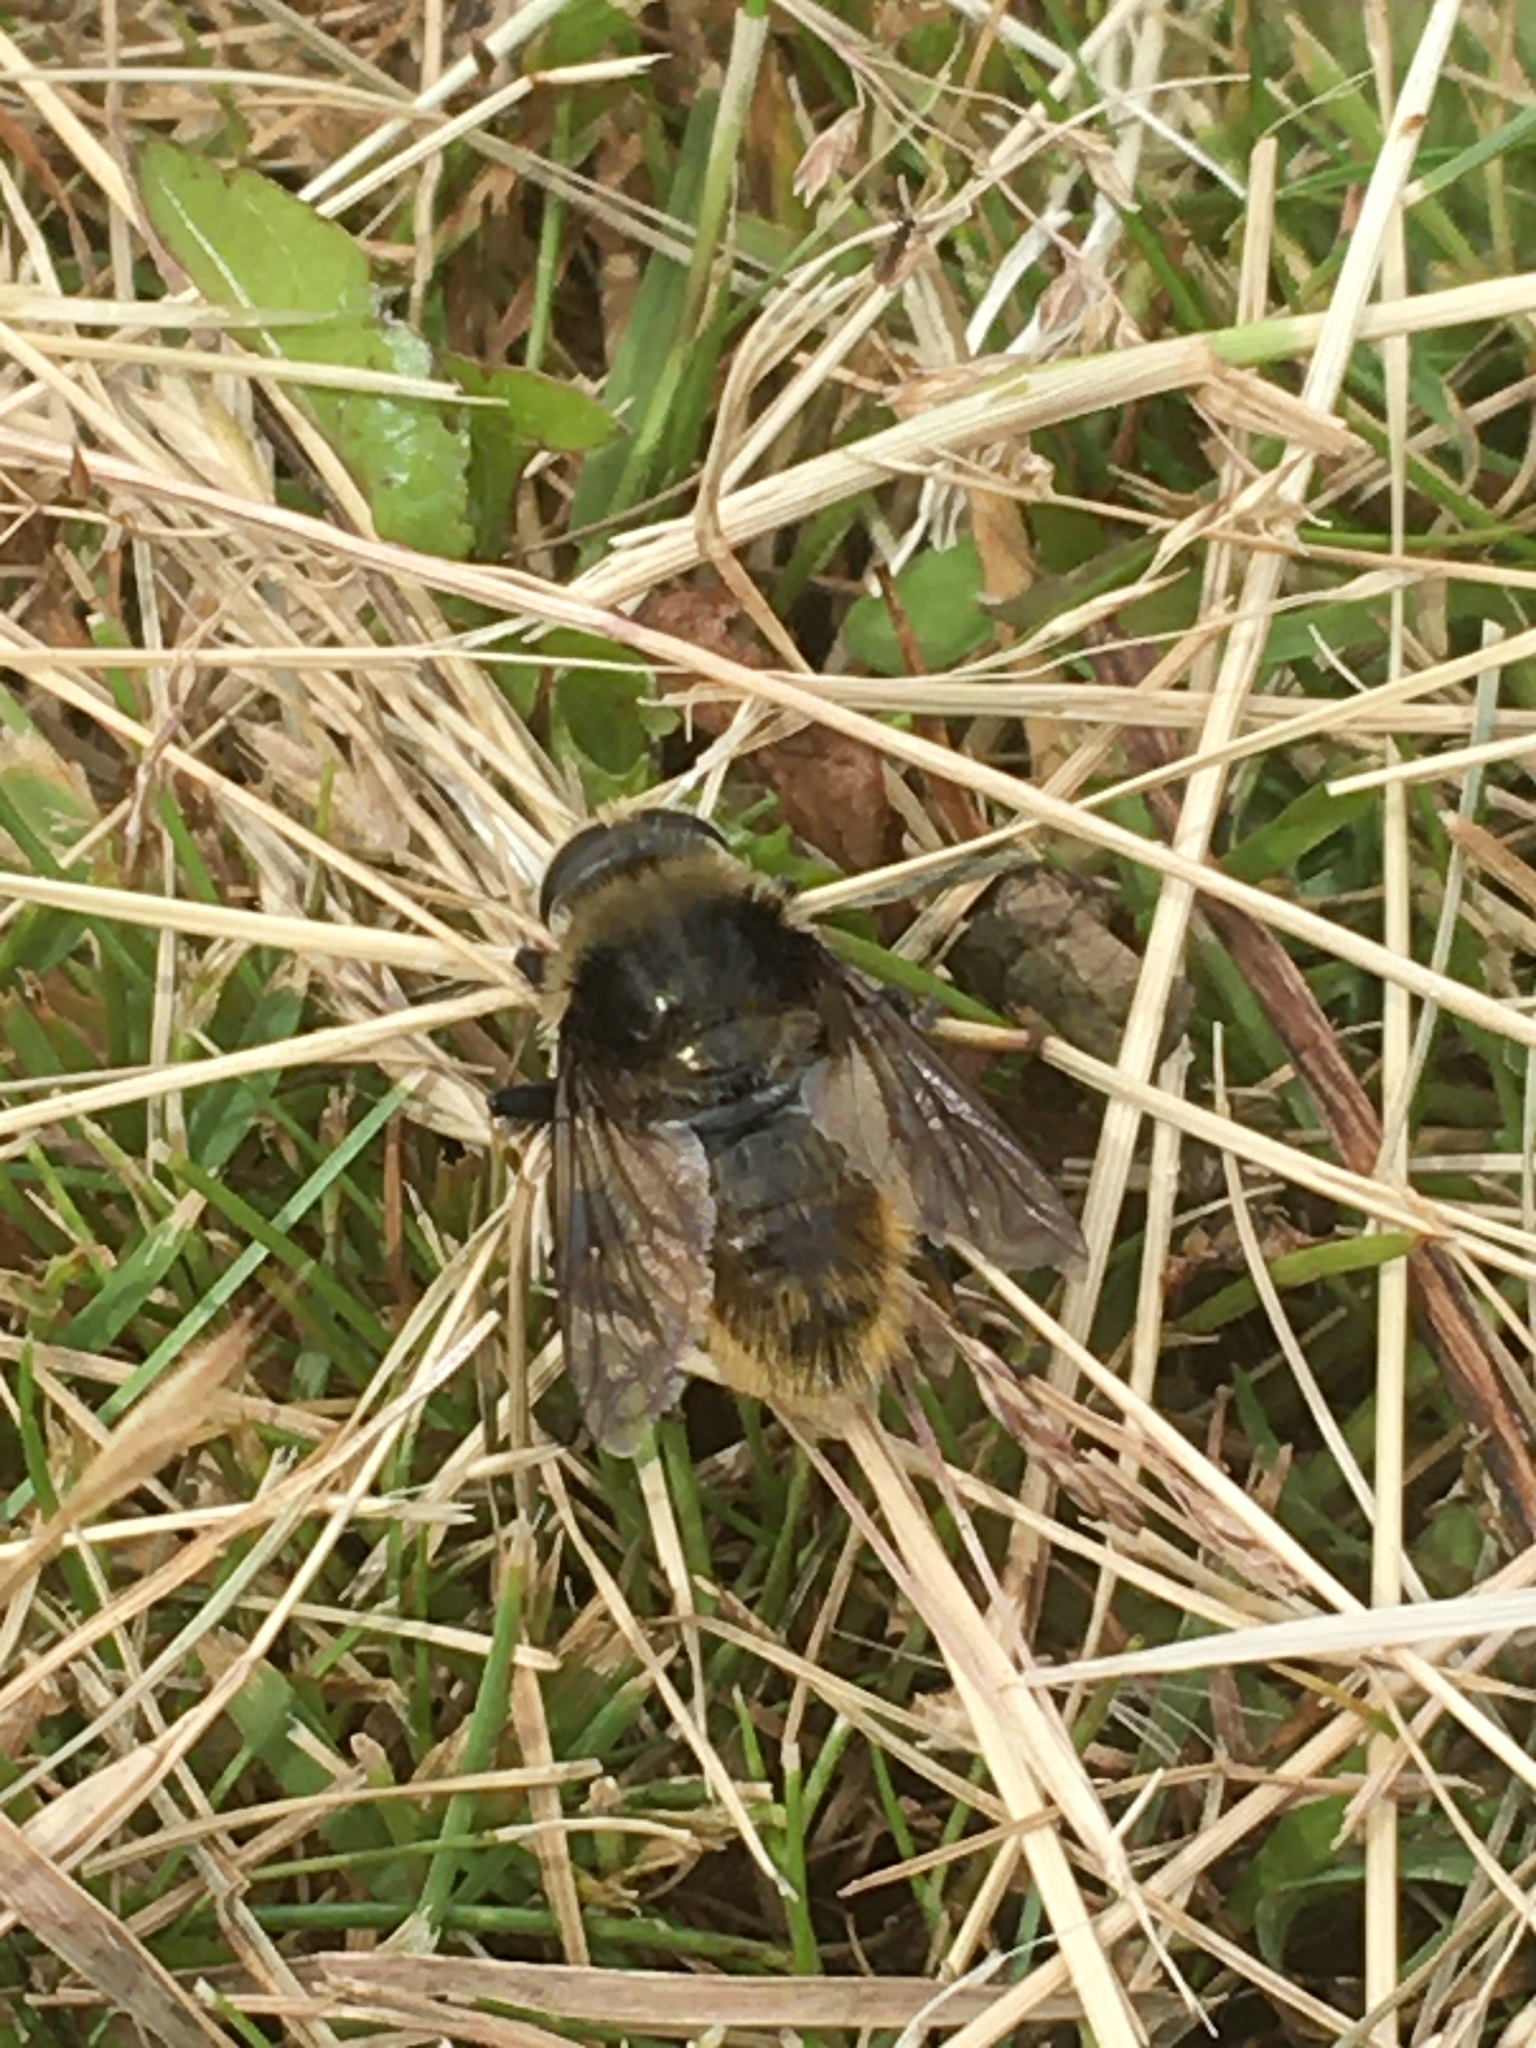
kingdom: Animalia
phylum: Arthropoda
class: Insecta
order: Diptera
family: Syrphidae
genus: Merodon
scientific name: Merodon equestris
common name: Greater bulb-fly
